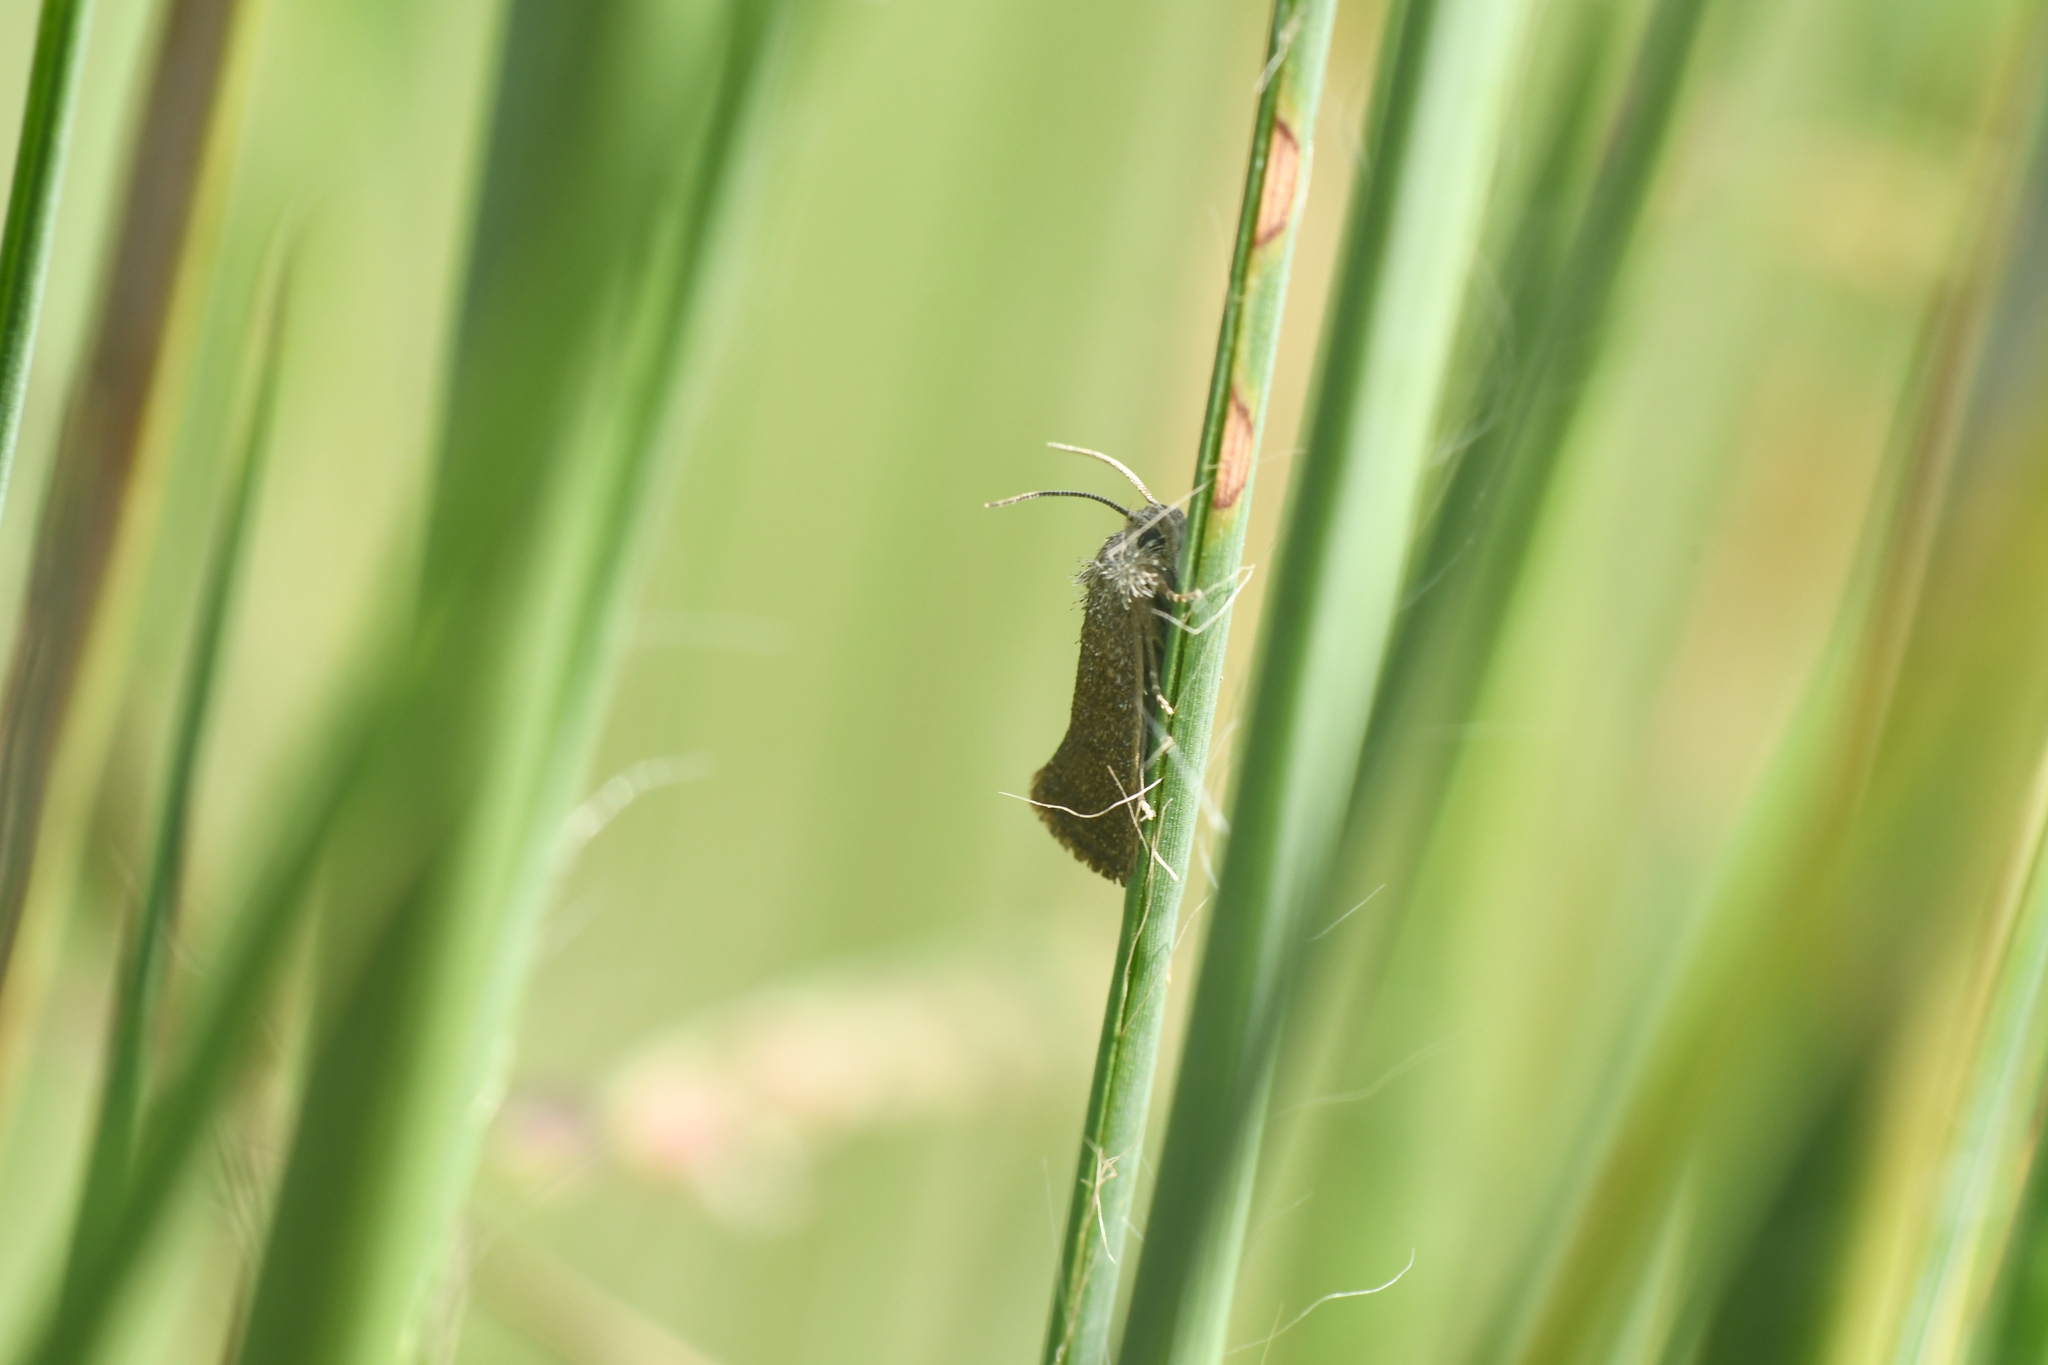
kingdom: Animalia
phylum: Arthropoda
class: Insecta
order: Lepidoptera
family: Tineidae
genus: Acrolophus
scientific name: Acrolophus heppneri
